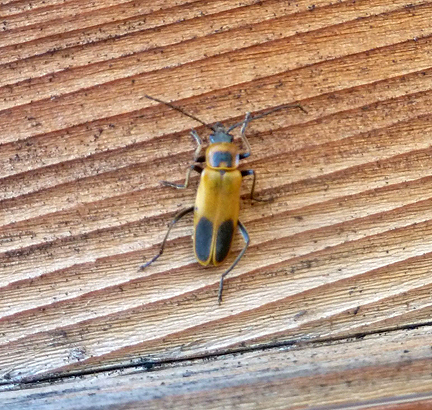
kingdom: Animalia
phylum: Arthropoda
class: Insecta
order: Coleoptera
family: Cantharidae
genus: Chauliognathus
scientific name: Chauliognathus pensylvanicus
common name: Goldenrod soldier beetle
